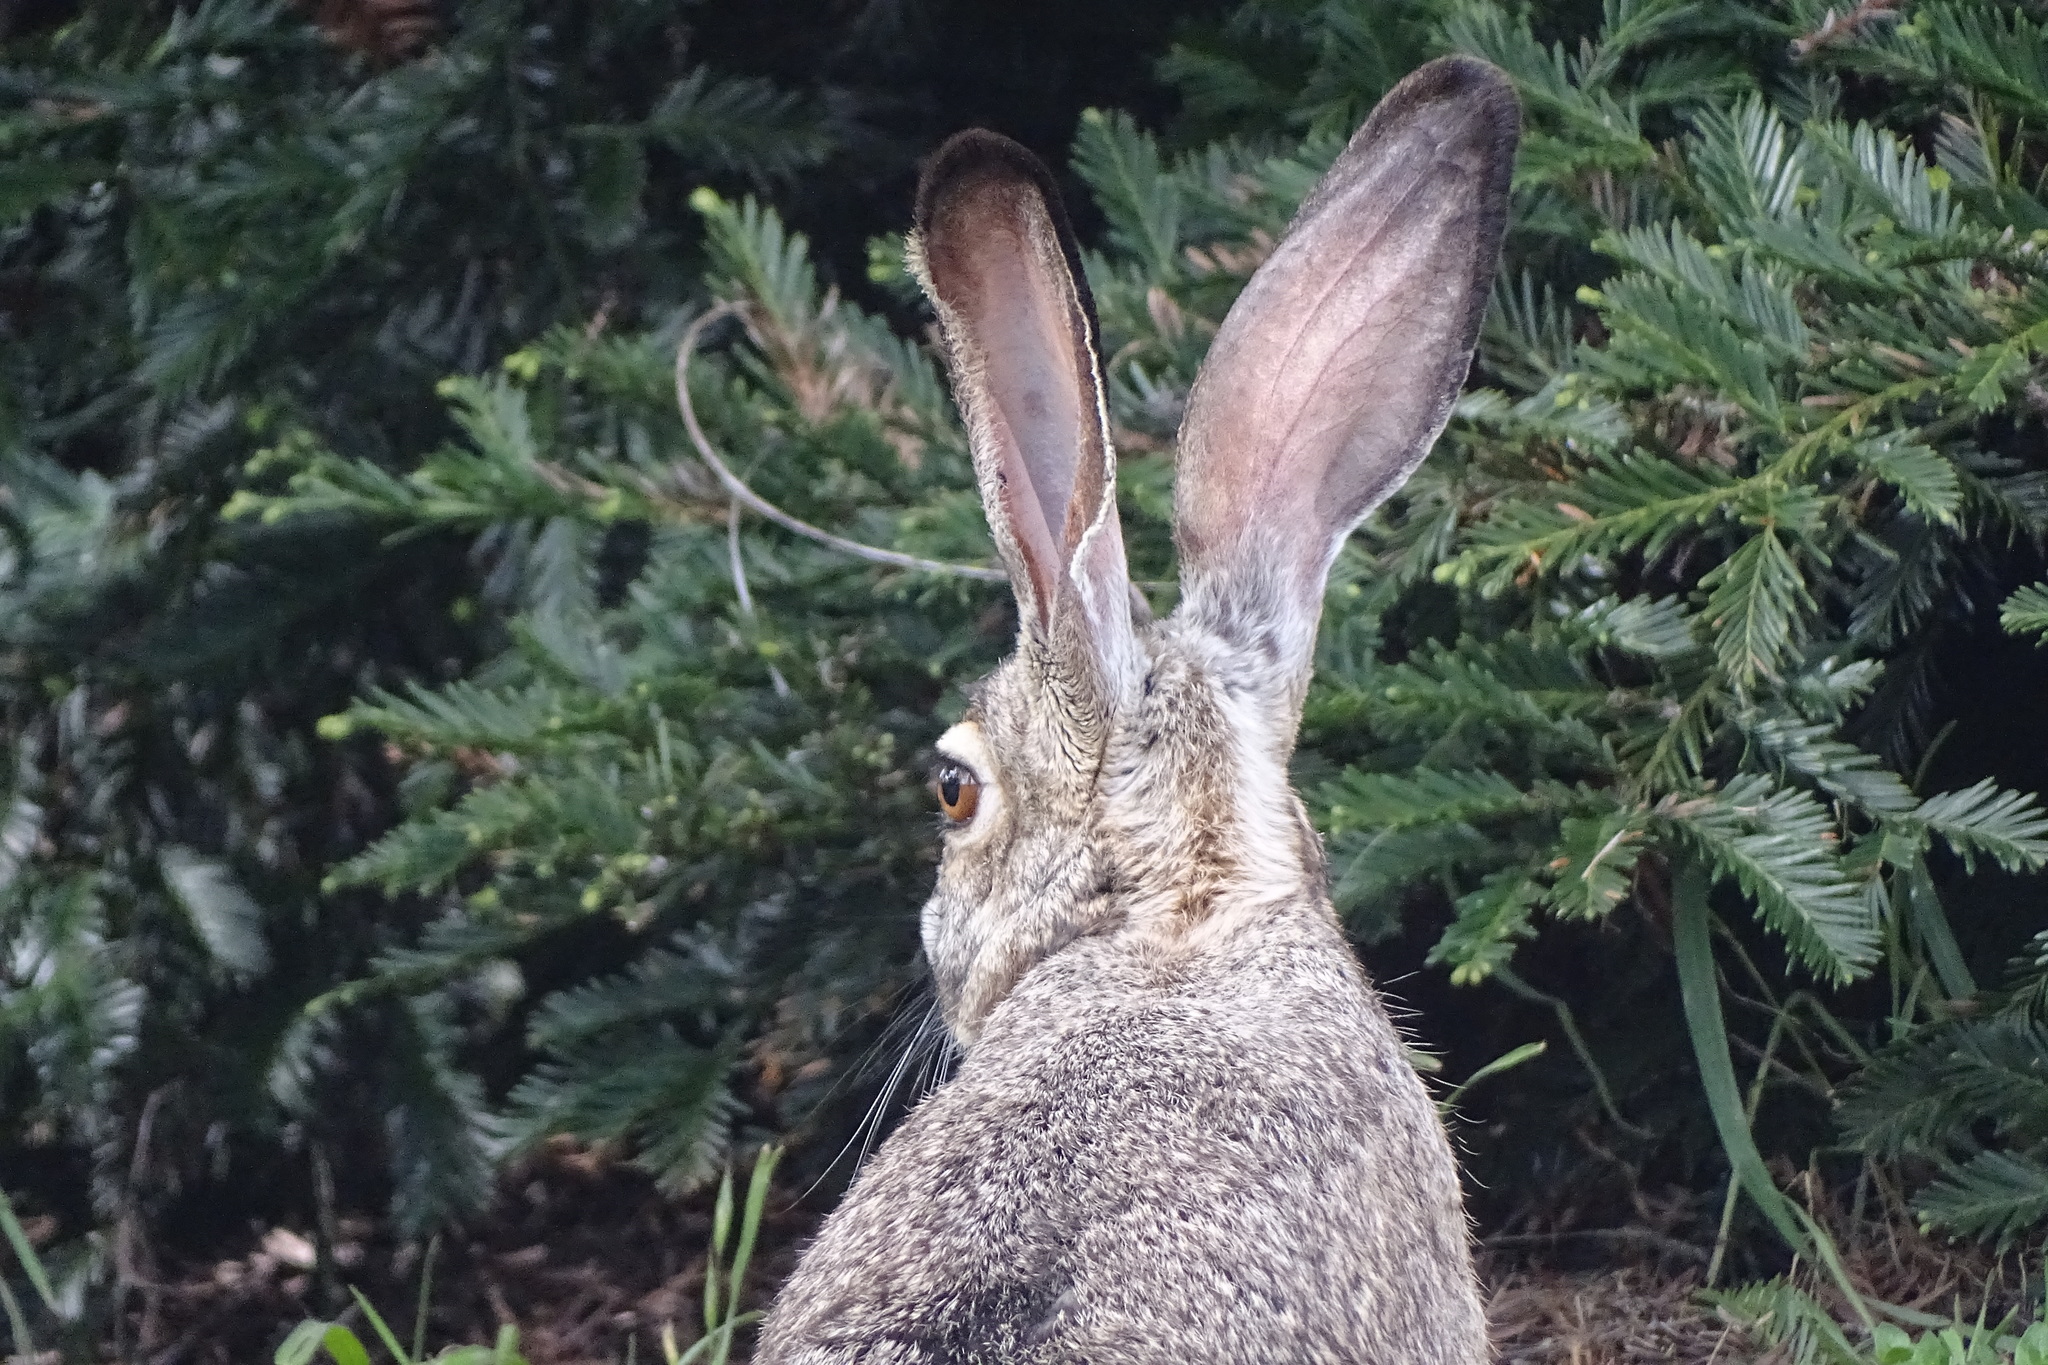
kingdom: Animalia
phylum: Chordata
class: Mammalia
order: Lagomorpha
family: Leporidae
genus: Lepus
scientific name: Lepus californicus
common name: Black-tailed jackrabbit
